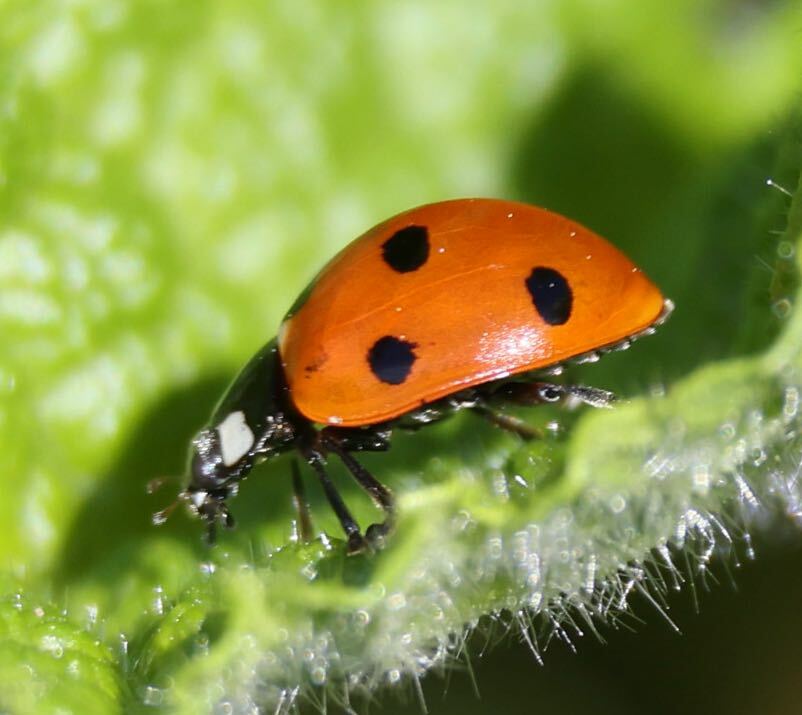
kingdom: Animalia
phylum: Arthropoda
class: Insecta
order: Coleoptera
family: Coccinellidae
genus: Coccinella
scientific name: Coccinella septempunctata
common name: Sevenspotted lady beetle
